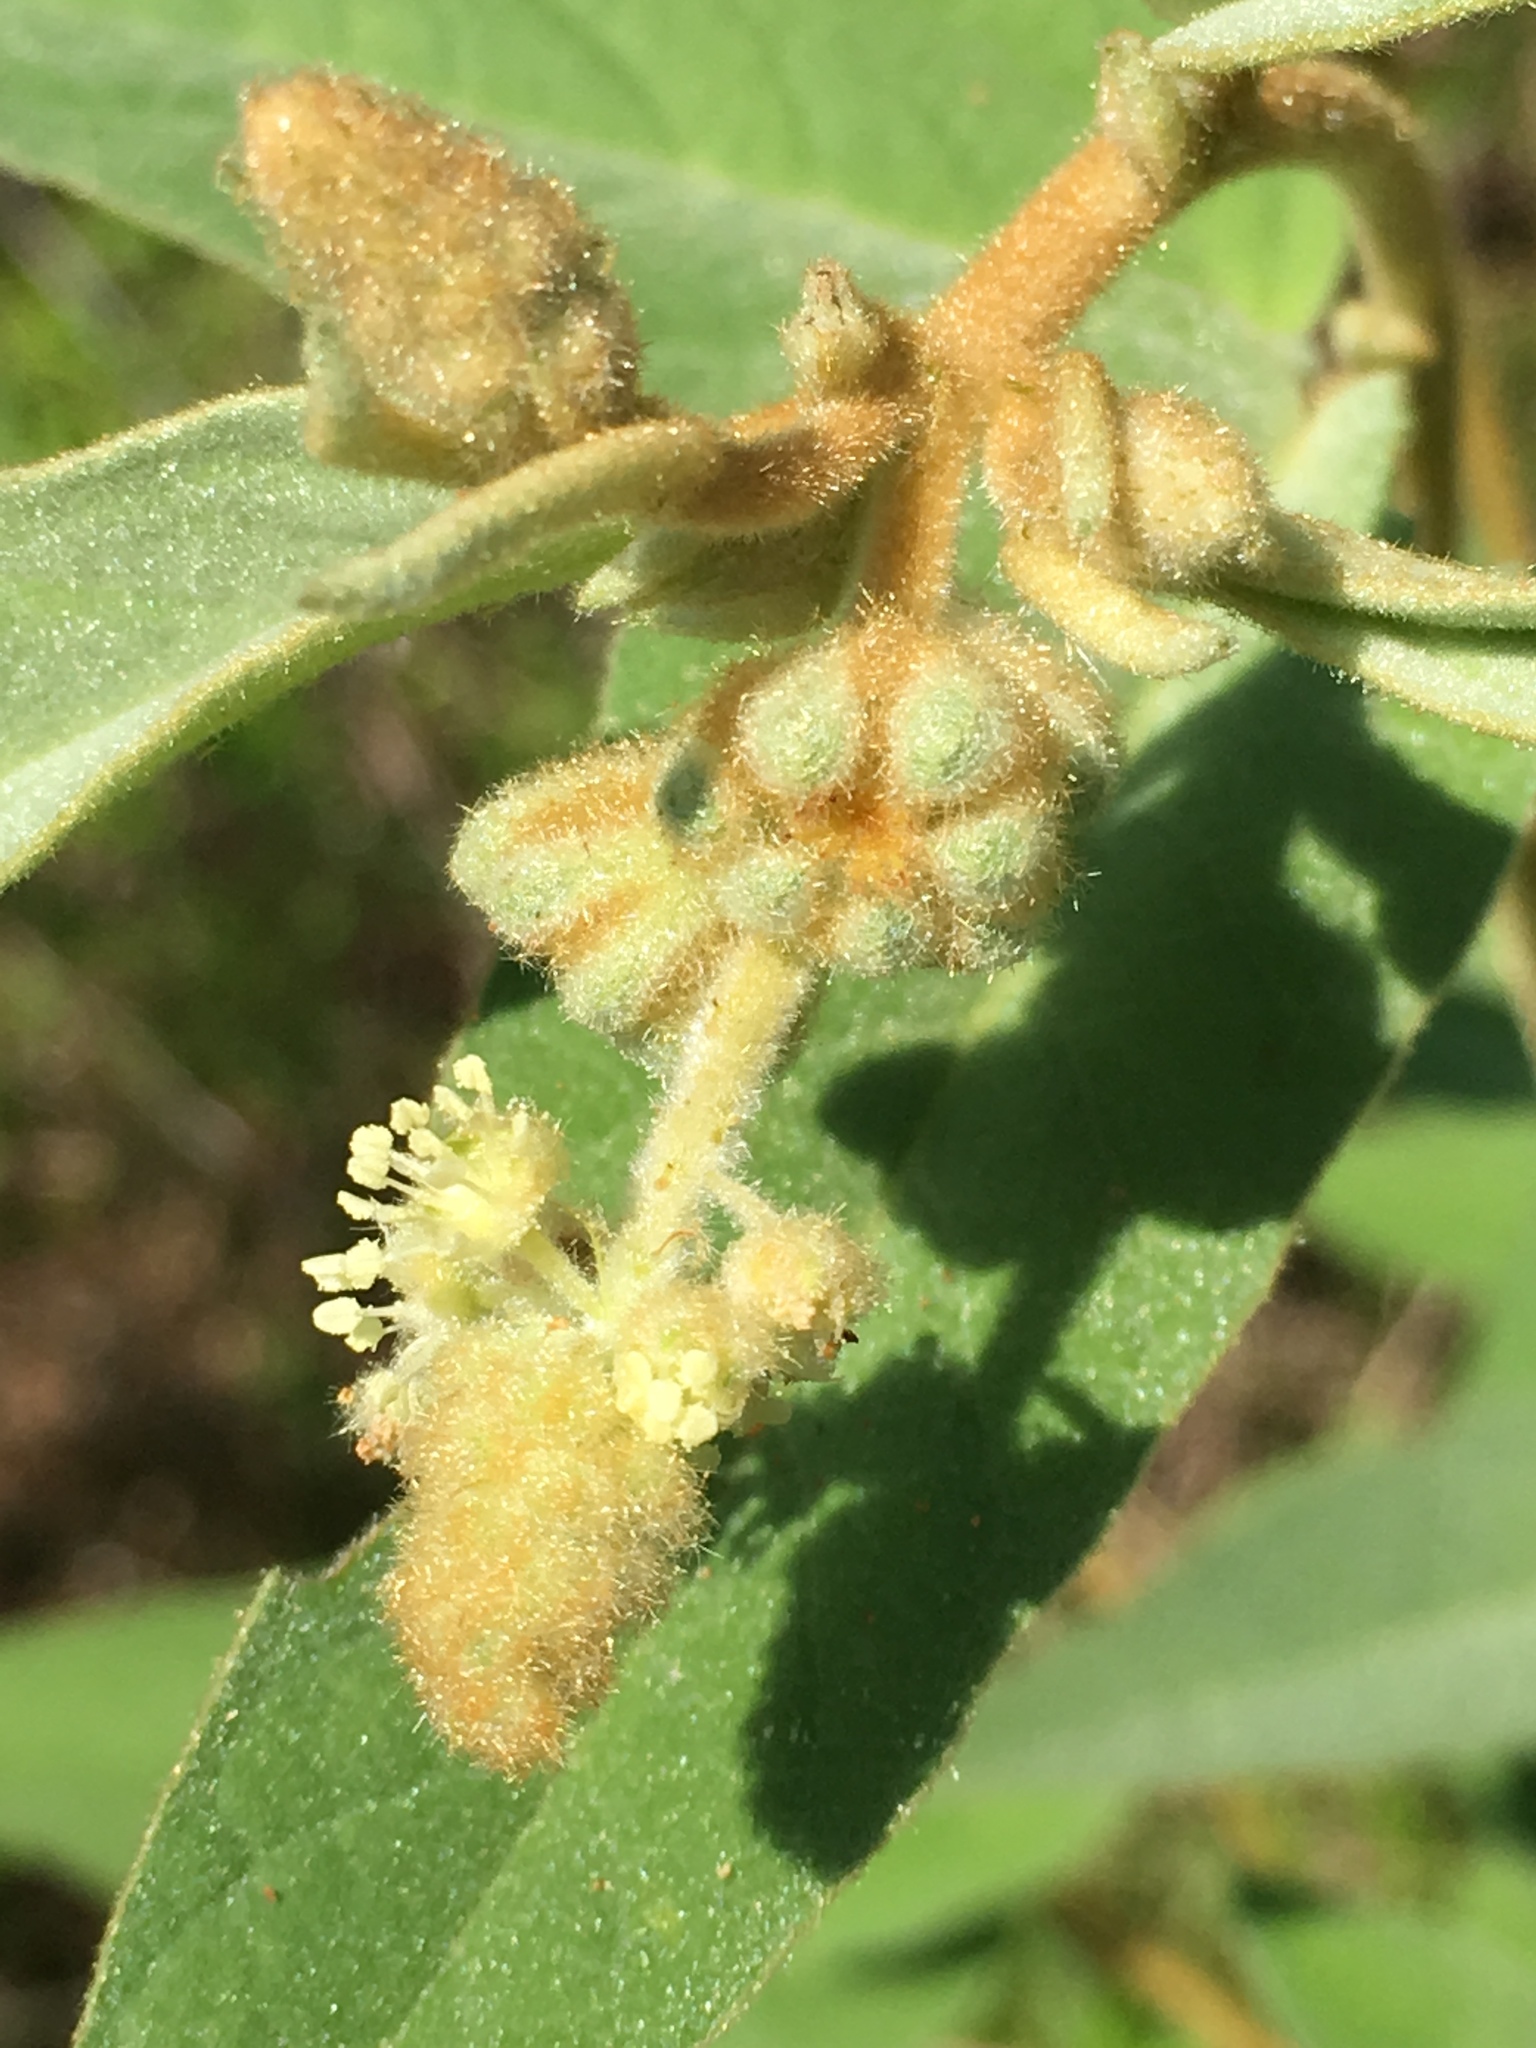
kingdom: Plantae
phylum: Tracheophyta
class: Magnoliopsida
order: Malpighiales
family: Euphorbiaceae
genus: Croton
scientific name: Croton lindheimeri
